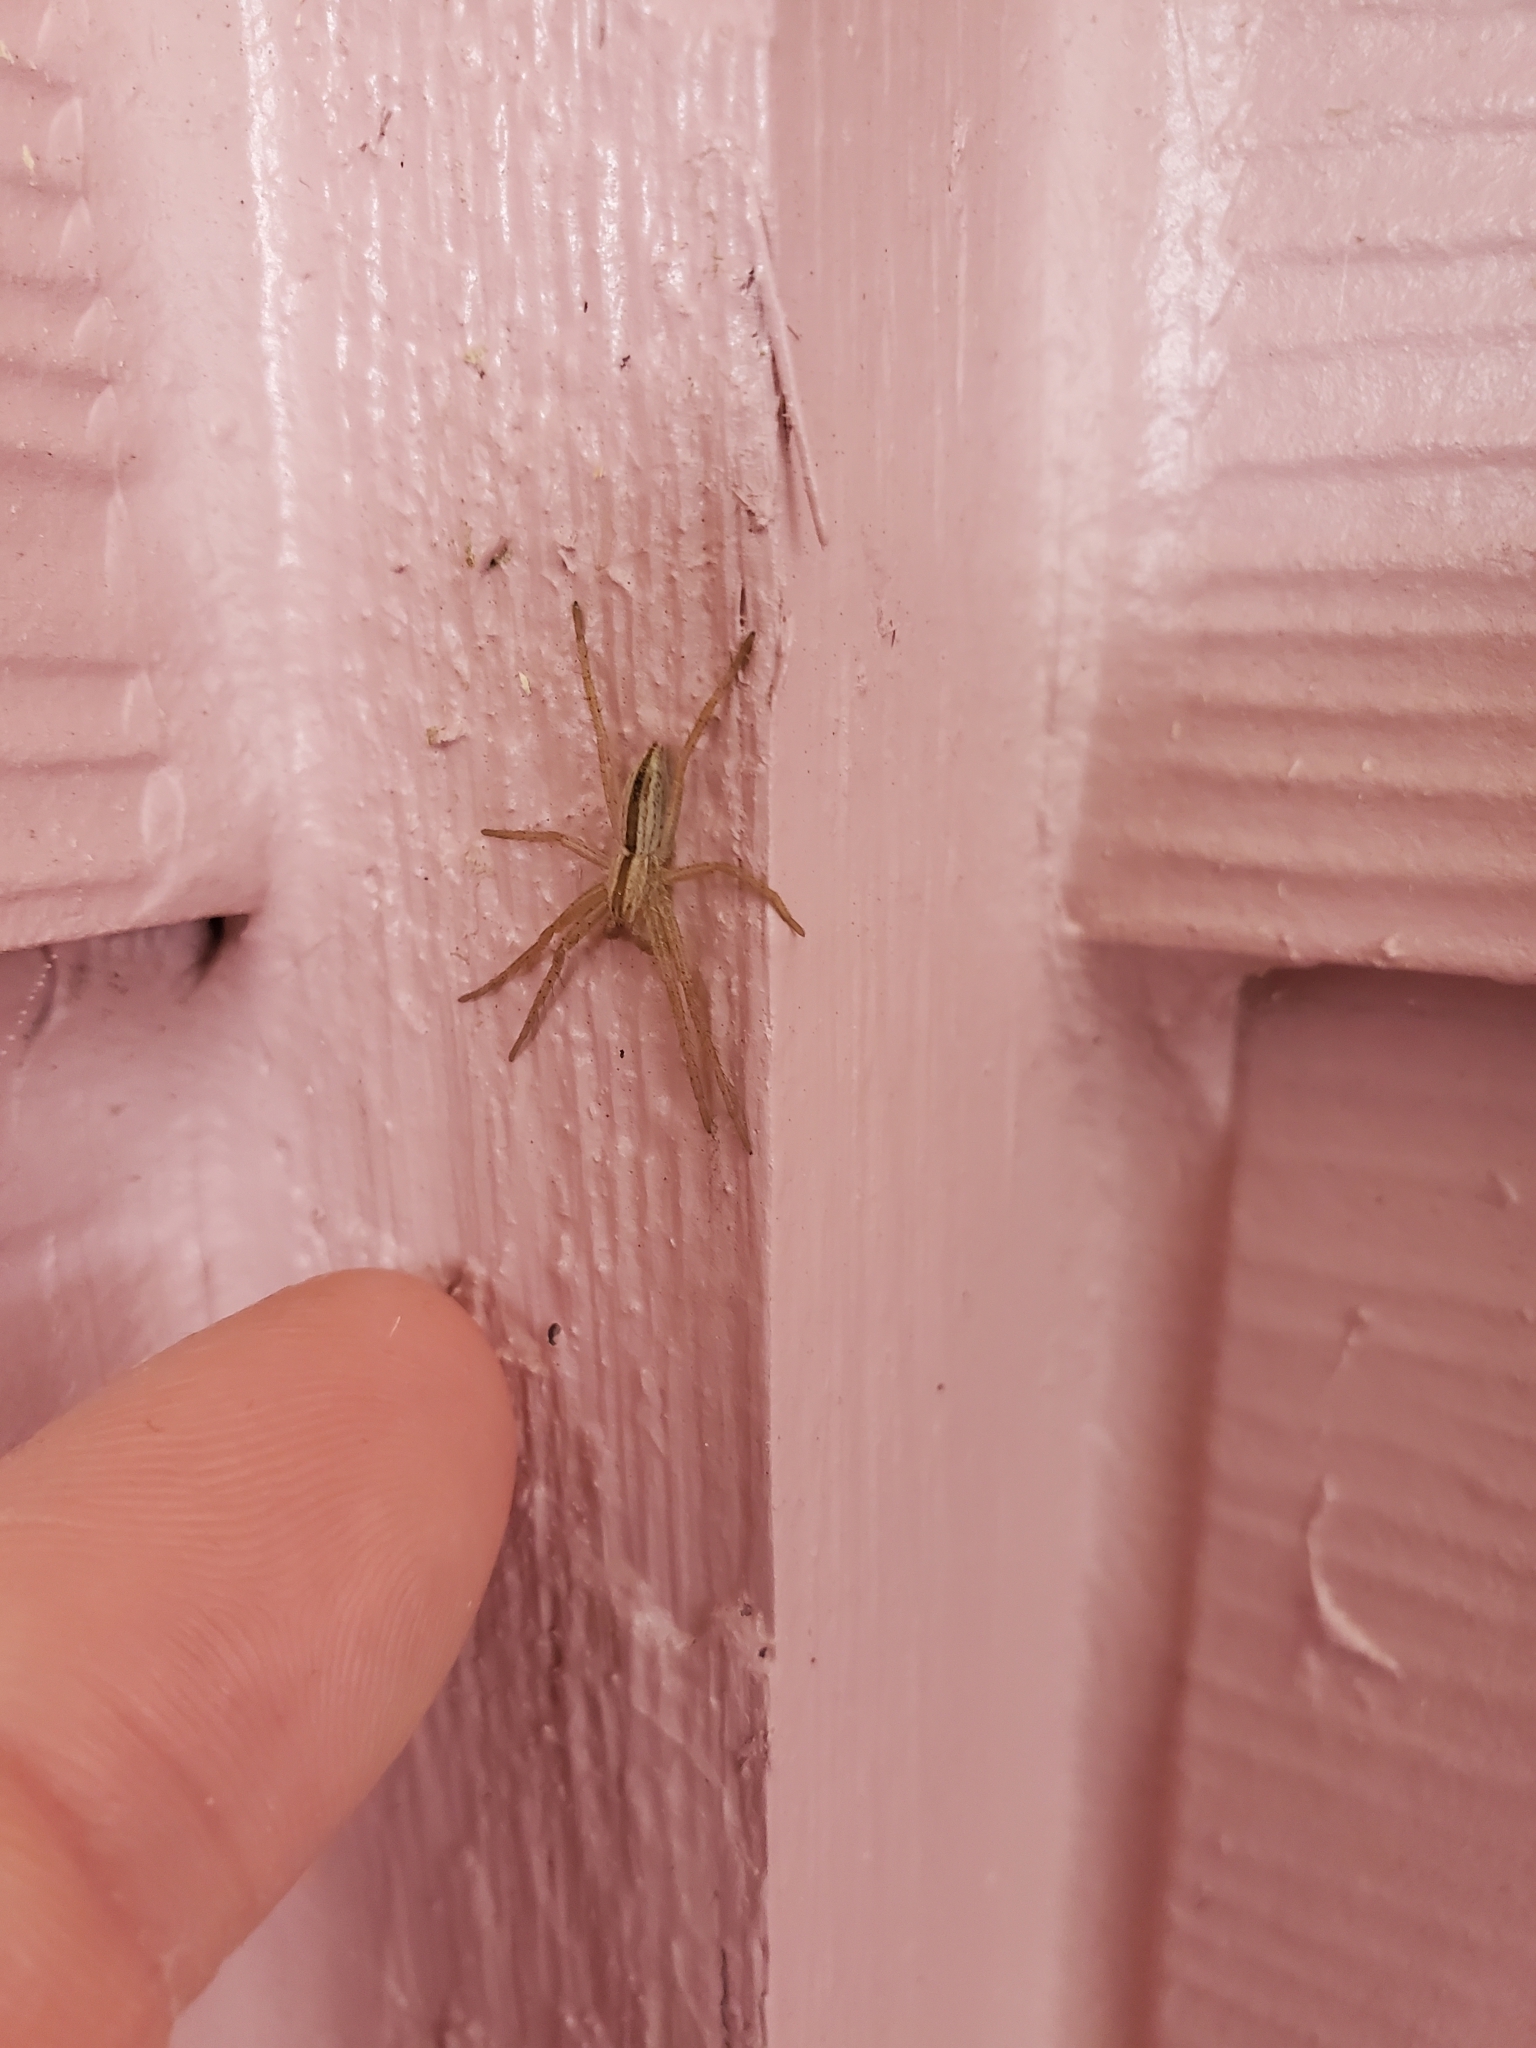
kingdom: Animalia
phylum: Arthropoda
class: Arachnida
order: Araneae
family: Philodromidae
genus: Tibellus
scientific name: Tibellus oblongus
